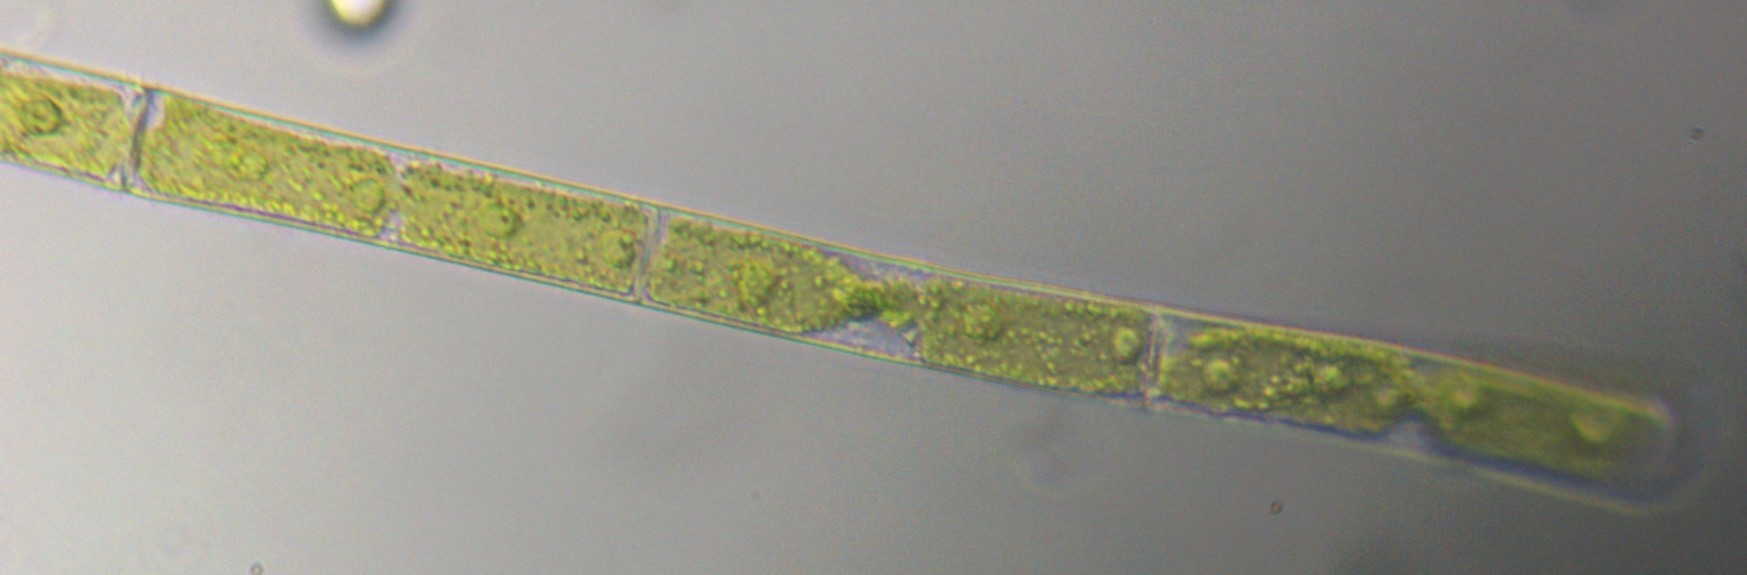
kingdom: Plantae
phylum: Charophyta
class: Zygnematophyceae
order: Zygnematales
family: Zygnemataceae
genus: Mougeotia
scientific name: Mougeotia
